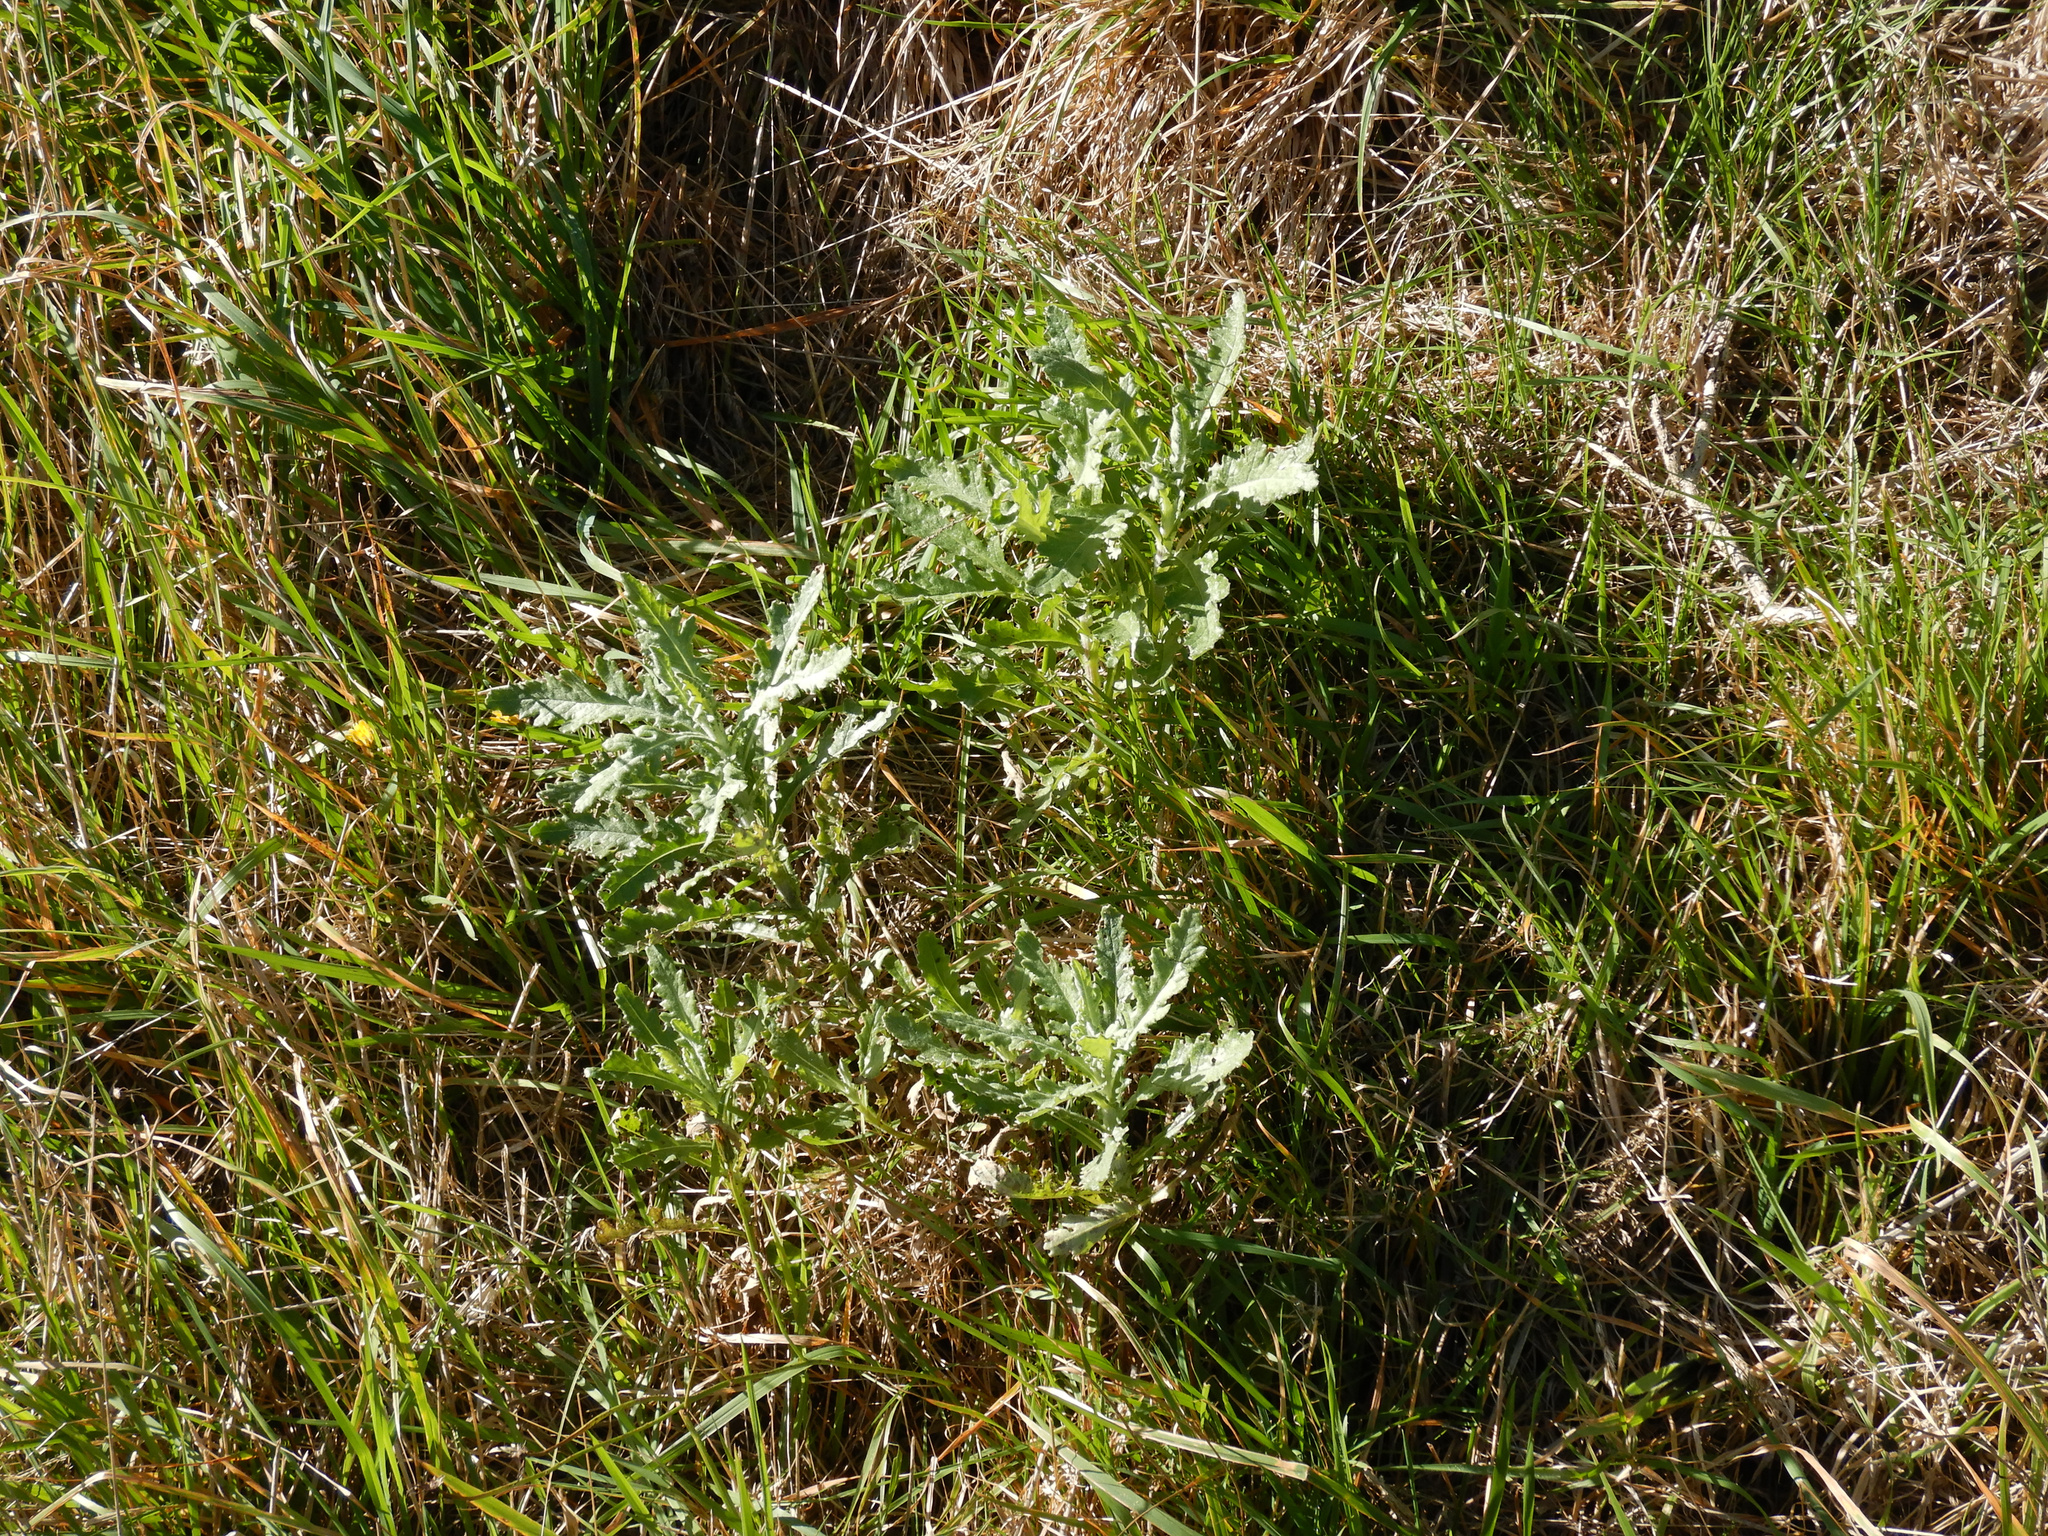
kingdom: Plantae
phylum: Tracheophyta
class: Magnoliopsida
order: Asterales
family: Asteraceae
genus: Senecio
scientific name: Senecio glomeratus
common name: Cutleaf burnweed
